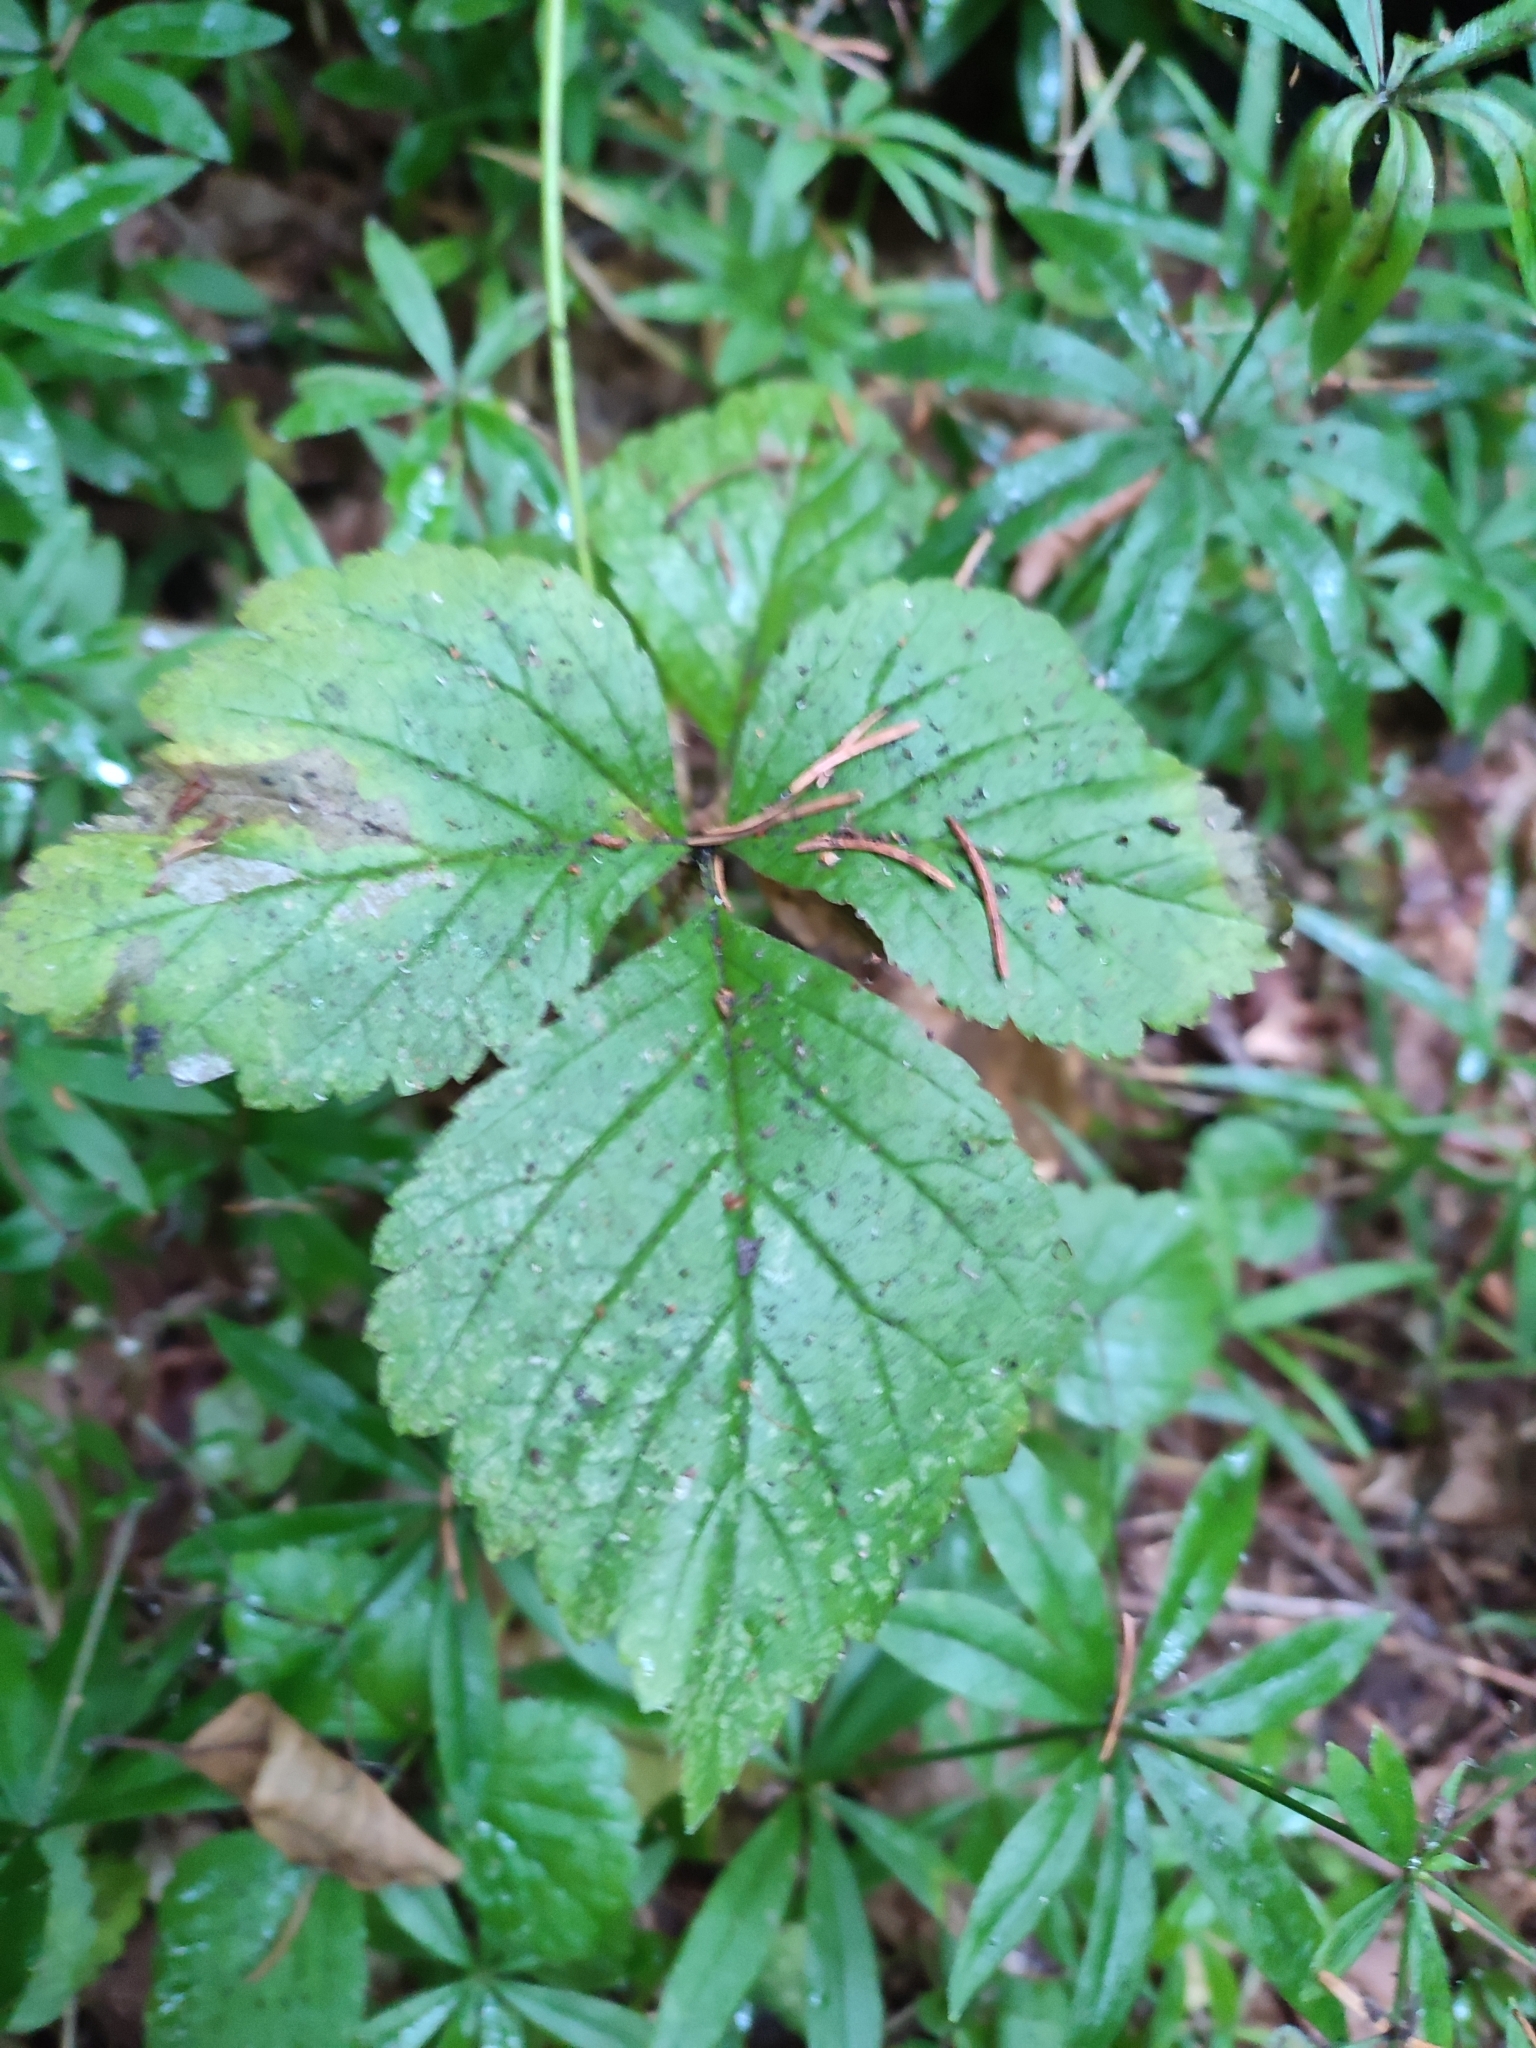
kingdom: Plantae
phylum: Tracheophyta
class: Magnoliopsida
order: Rosales
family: Rosaceae
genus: Rubus
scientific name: Rubus saxatilis
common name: Stone bramble
